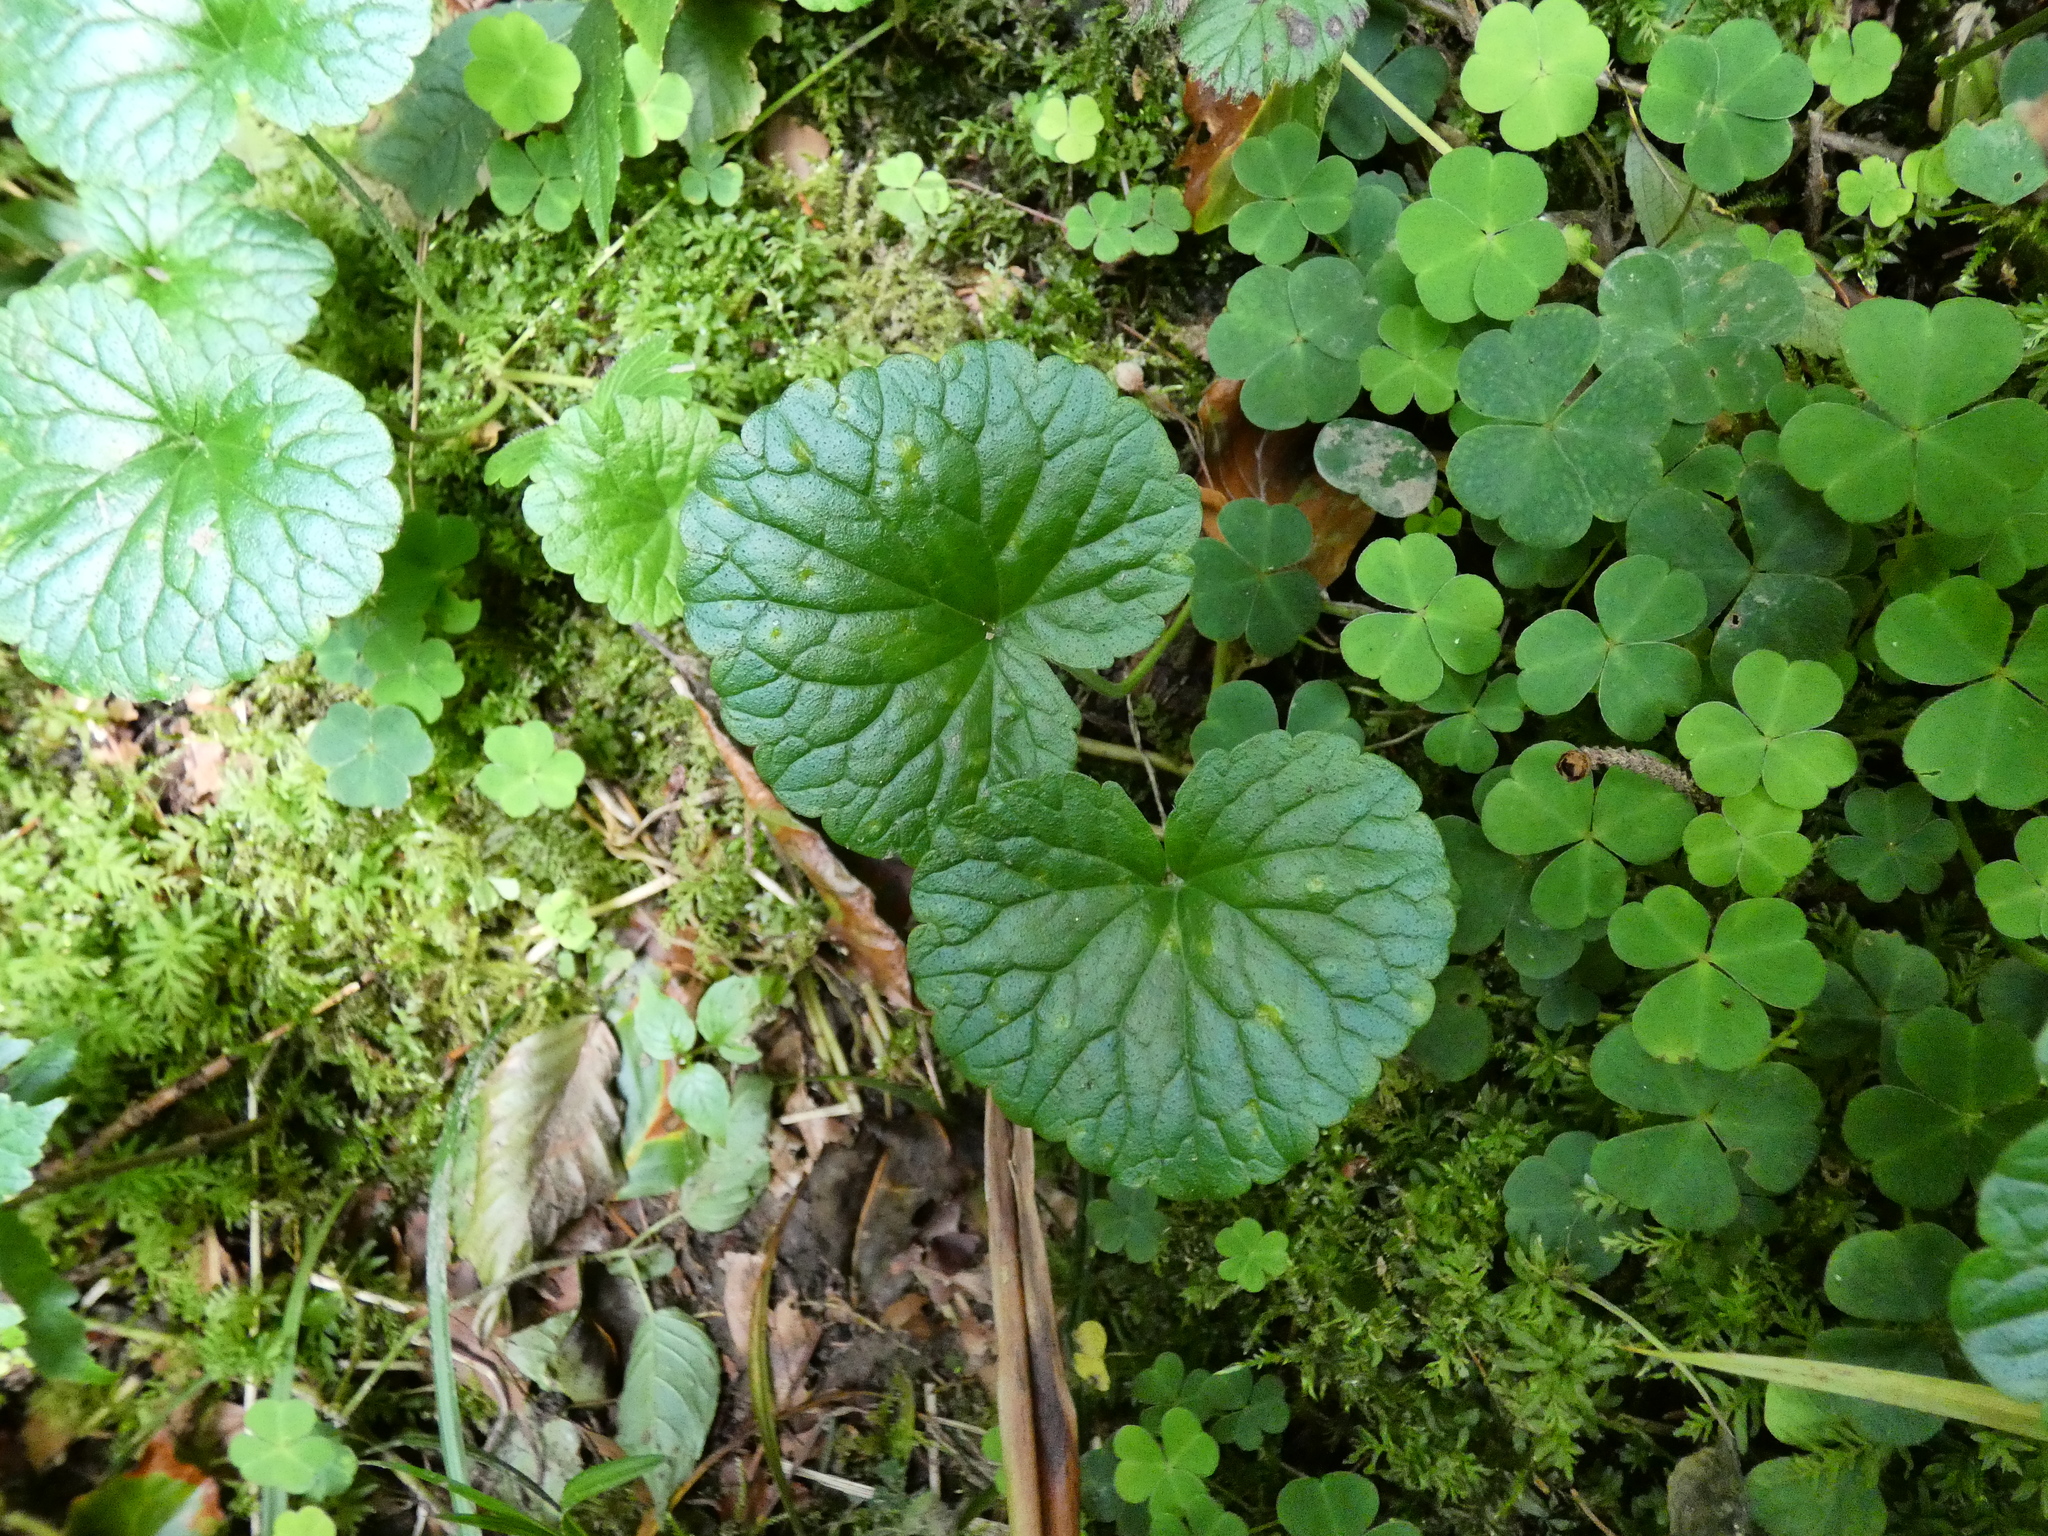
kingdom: Plantae
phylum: Tracheophyta
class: Magnoliopsida
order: Lamiales
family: Lamiaceae
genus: Glechoma
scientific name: Glechoma hederacea
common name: Ground ivy
